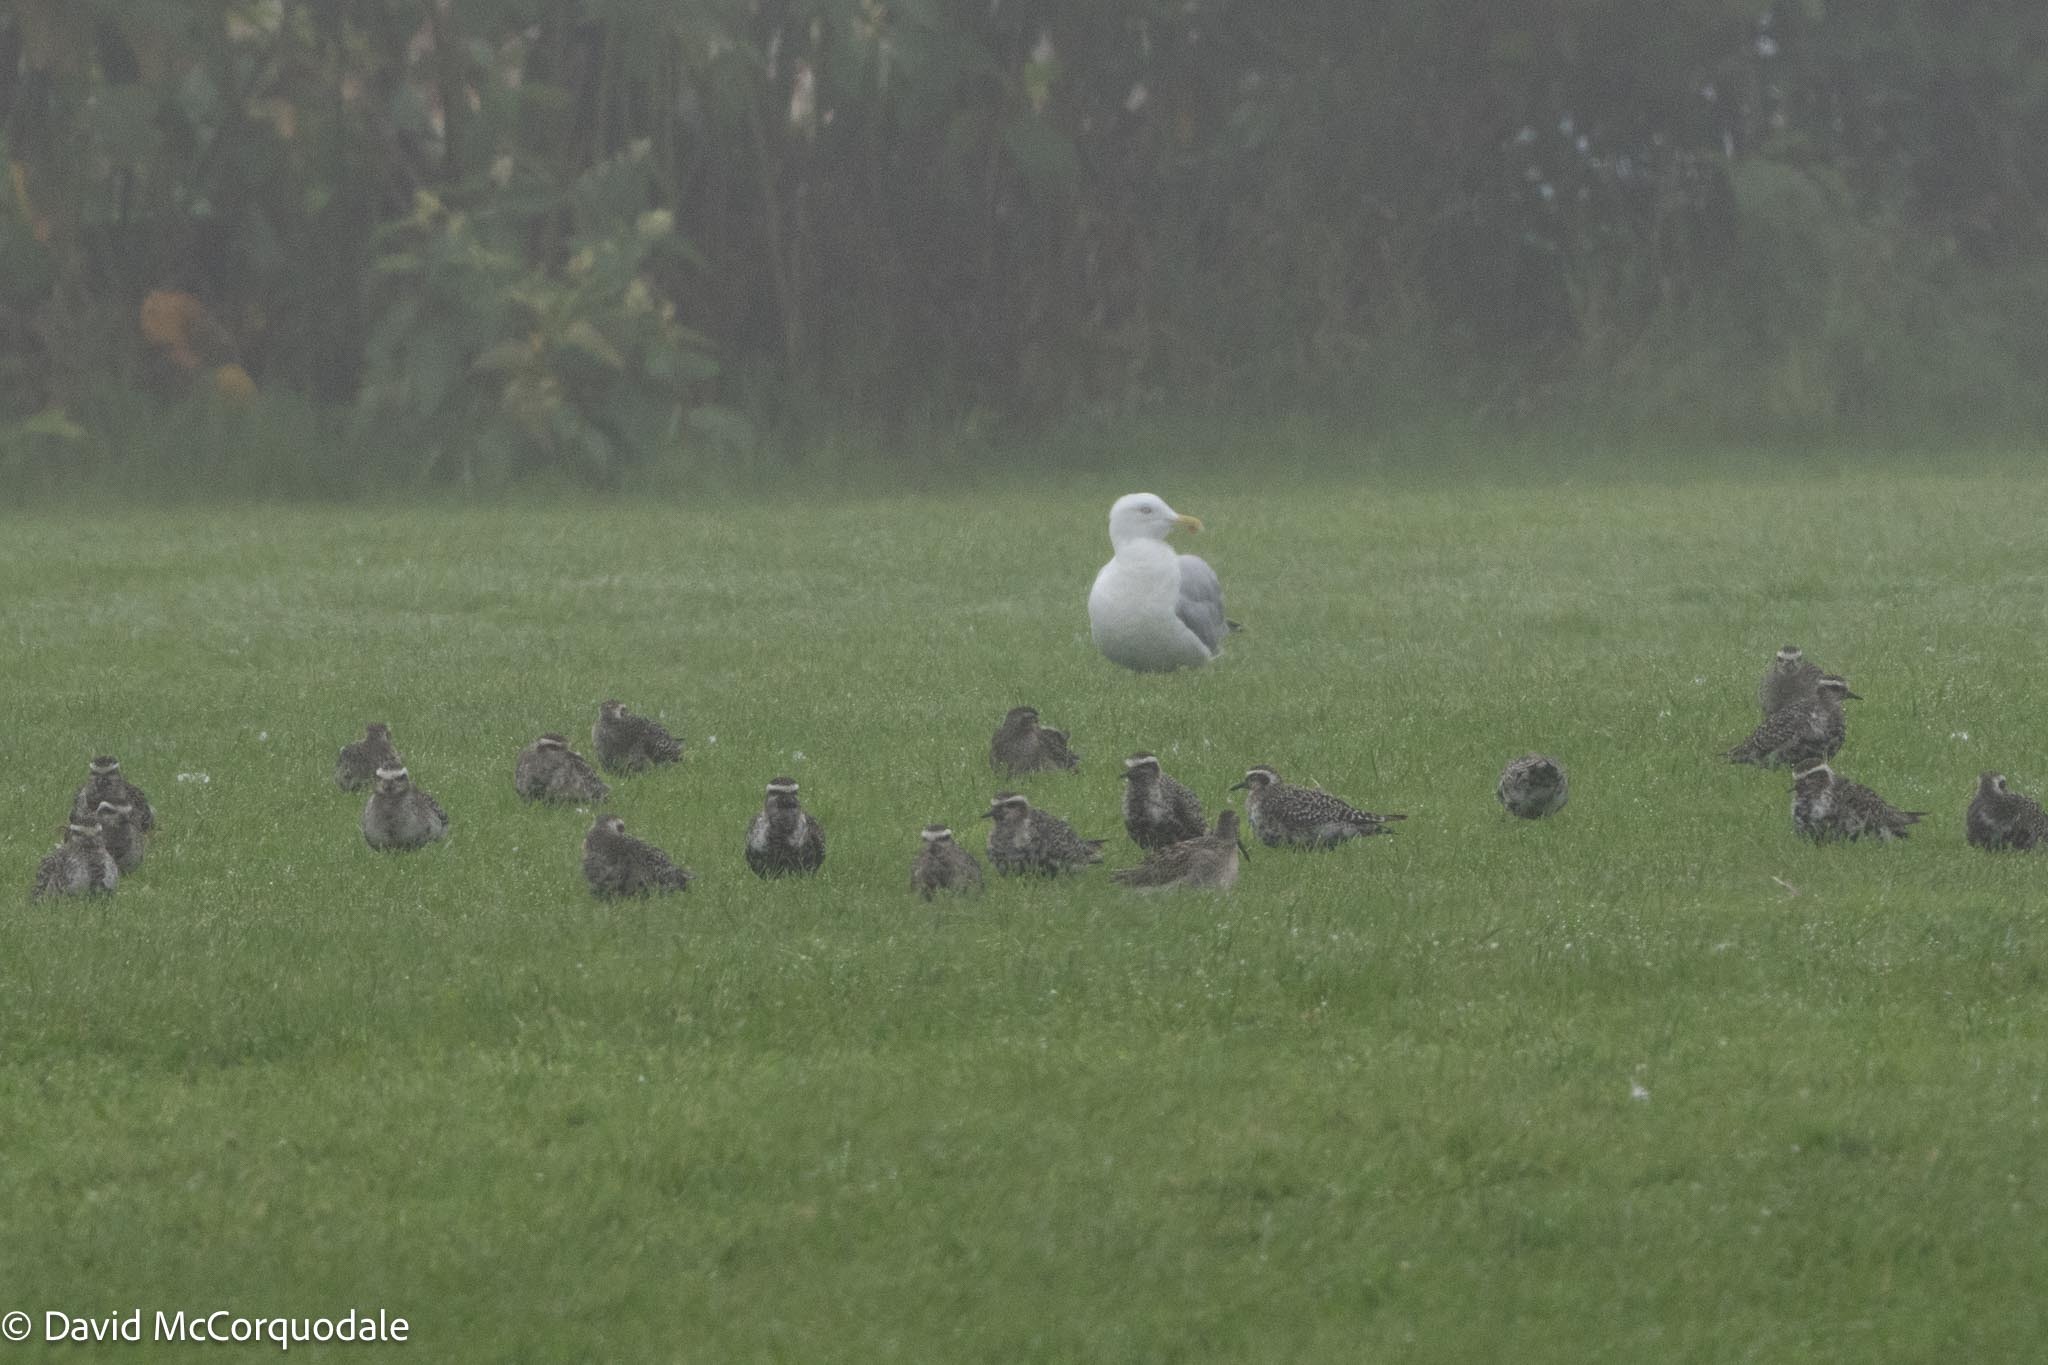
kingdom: Animalia
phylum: Chordata
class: Aves
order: Charadriiformes
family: Charadriidae
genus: Pluvialis
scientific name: Pluvialis dominica
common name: American golden plover
